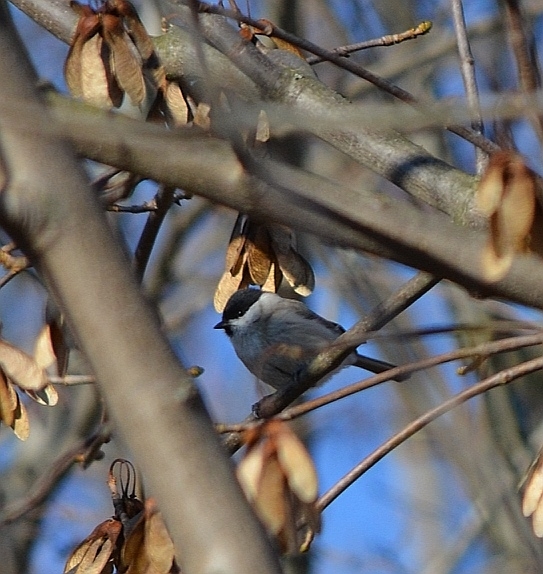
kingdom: Animalia
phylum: Chordata
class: Aves
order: Passeriformes
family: Paridae
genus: Poecile
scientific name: Poecile montanus
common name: Willow tit
